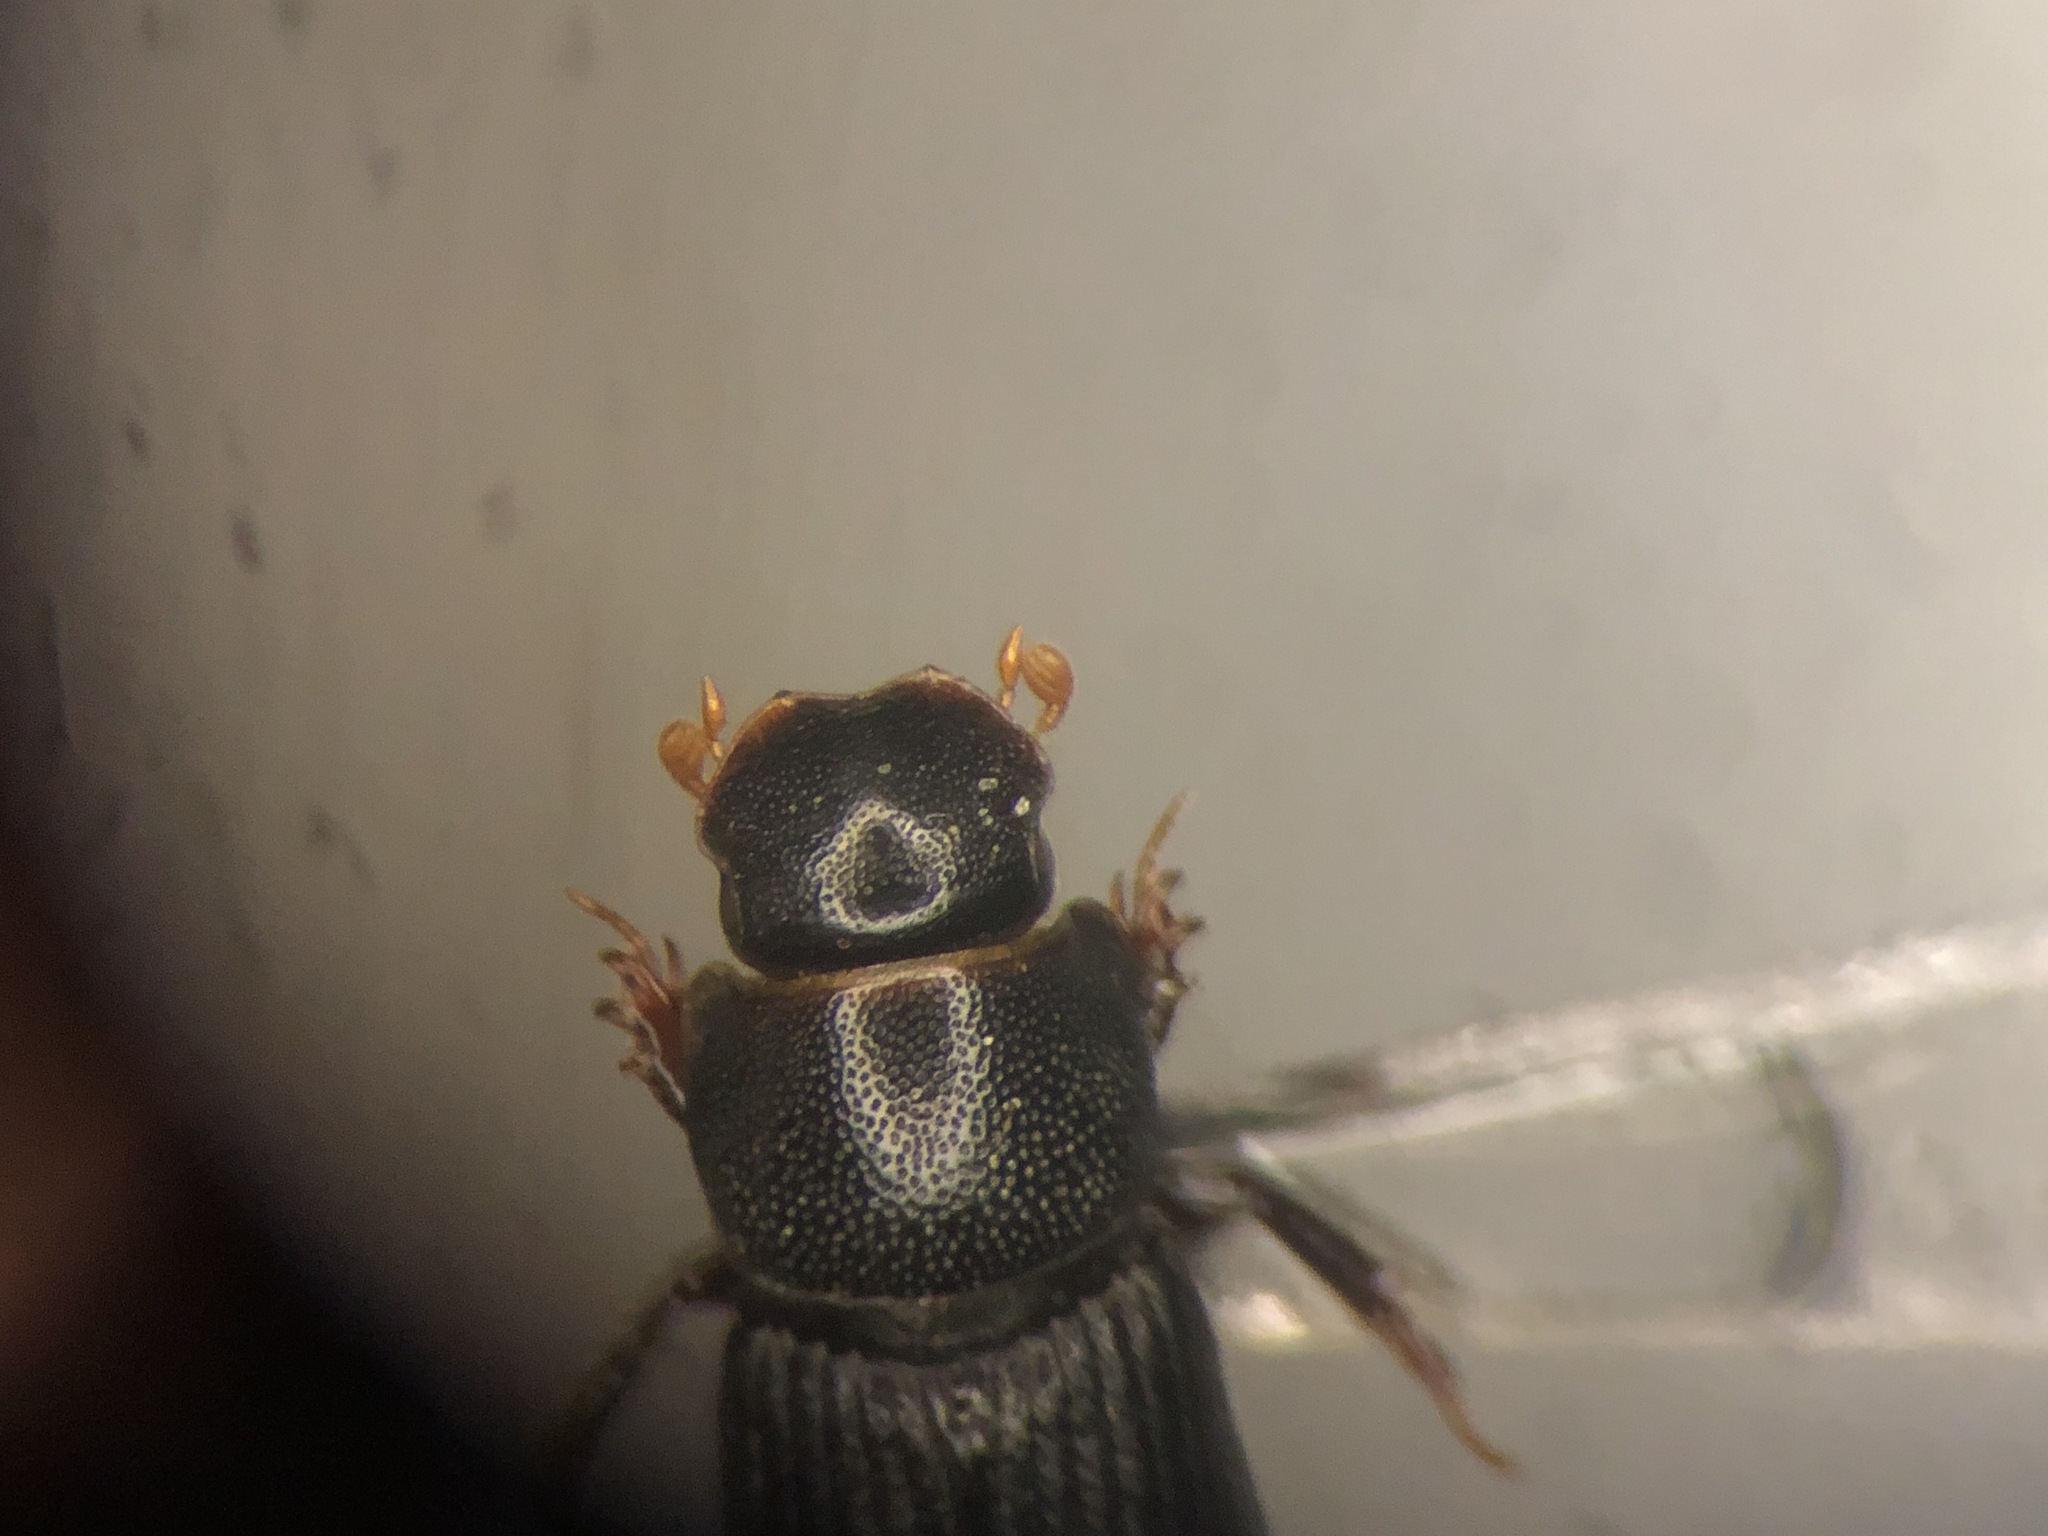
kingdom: Animalia
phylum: Arthropoda
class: Insecta
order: Coleoptera
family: Scarabaeidae
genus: Ataenius
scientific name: Ataenius abditus
